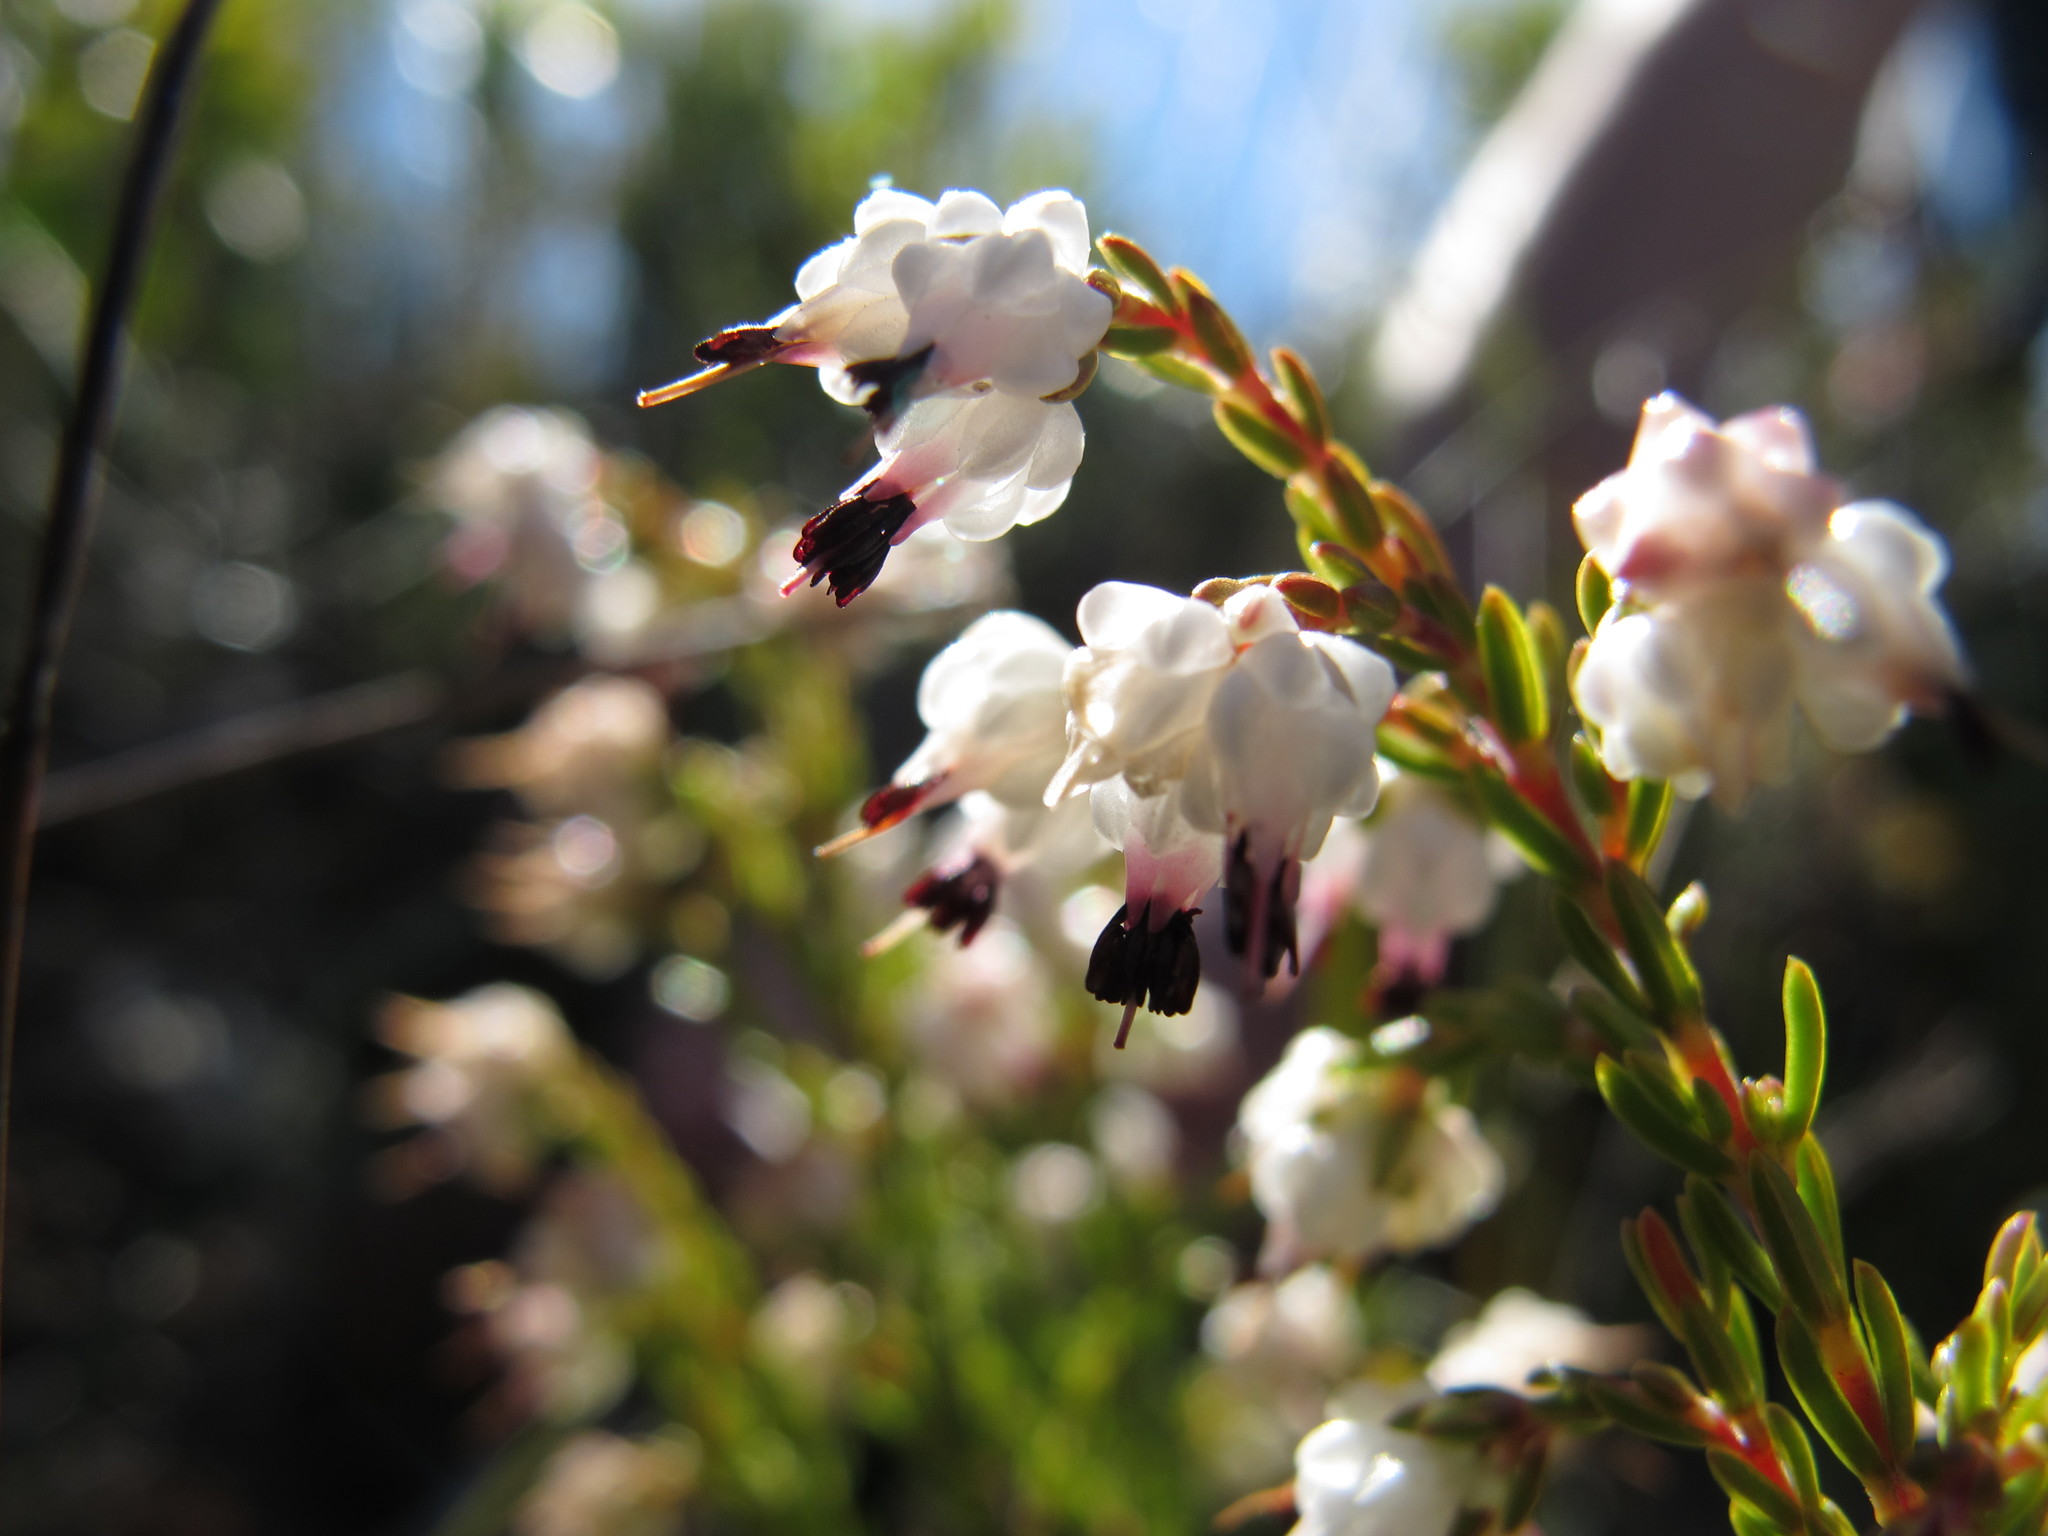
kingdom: Plantae
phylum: Tracheophyta
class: Magnoliopsida
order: Ericales
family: Ericaceae
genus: Erica
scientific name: Erica amphigena
